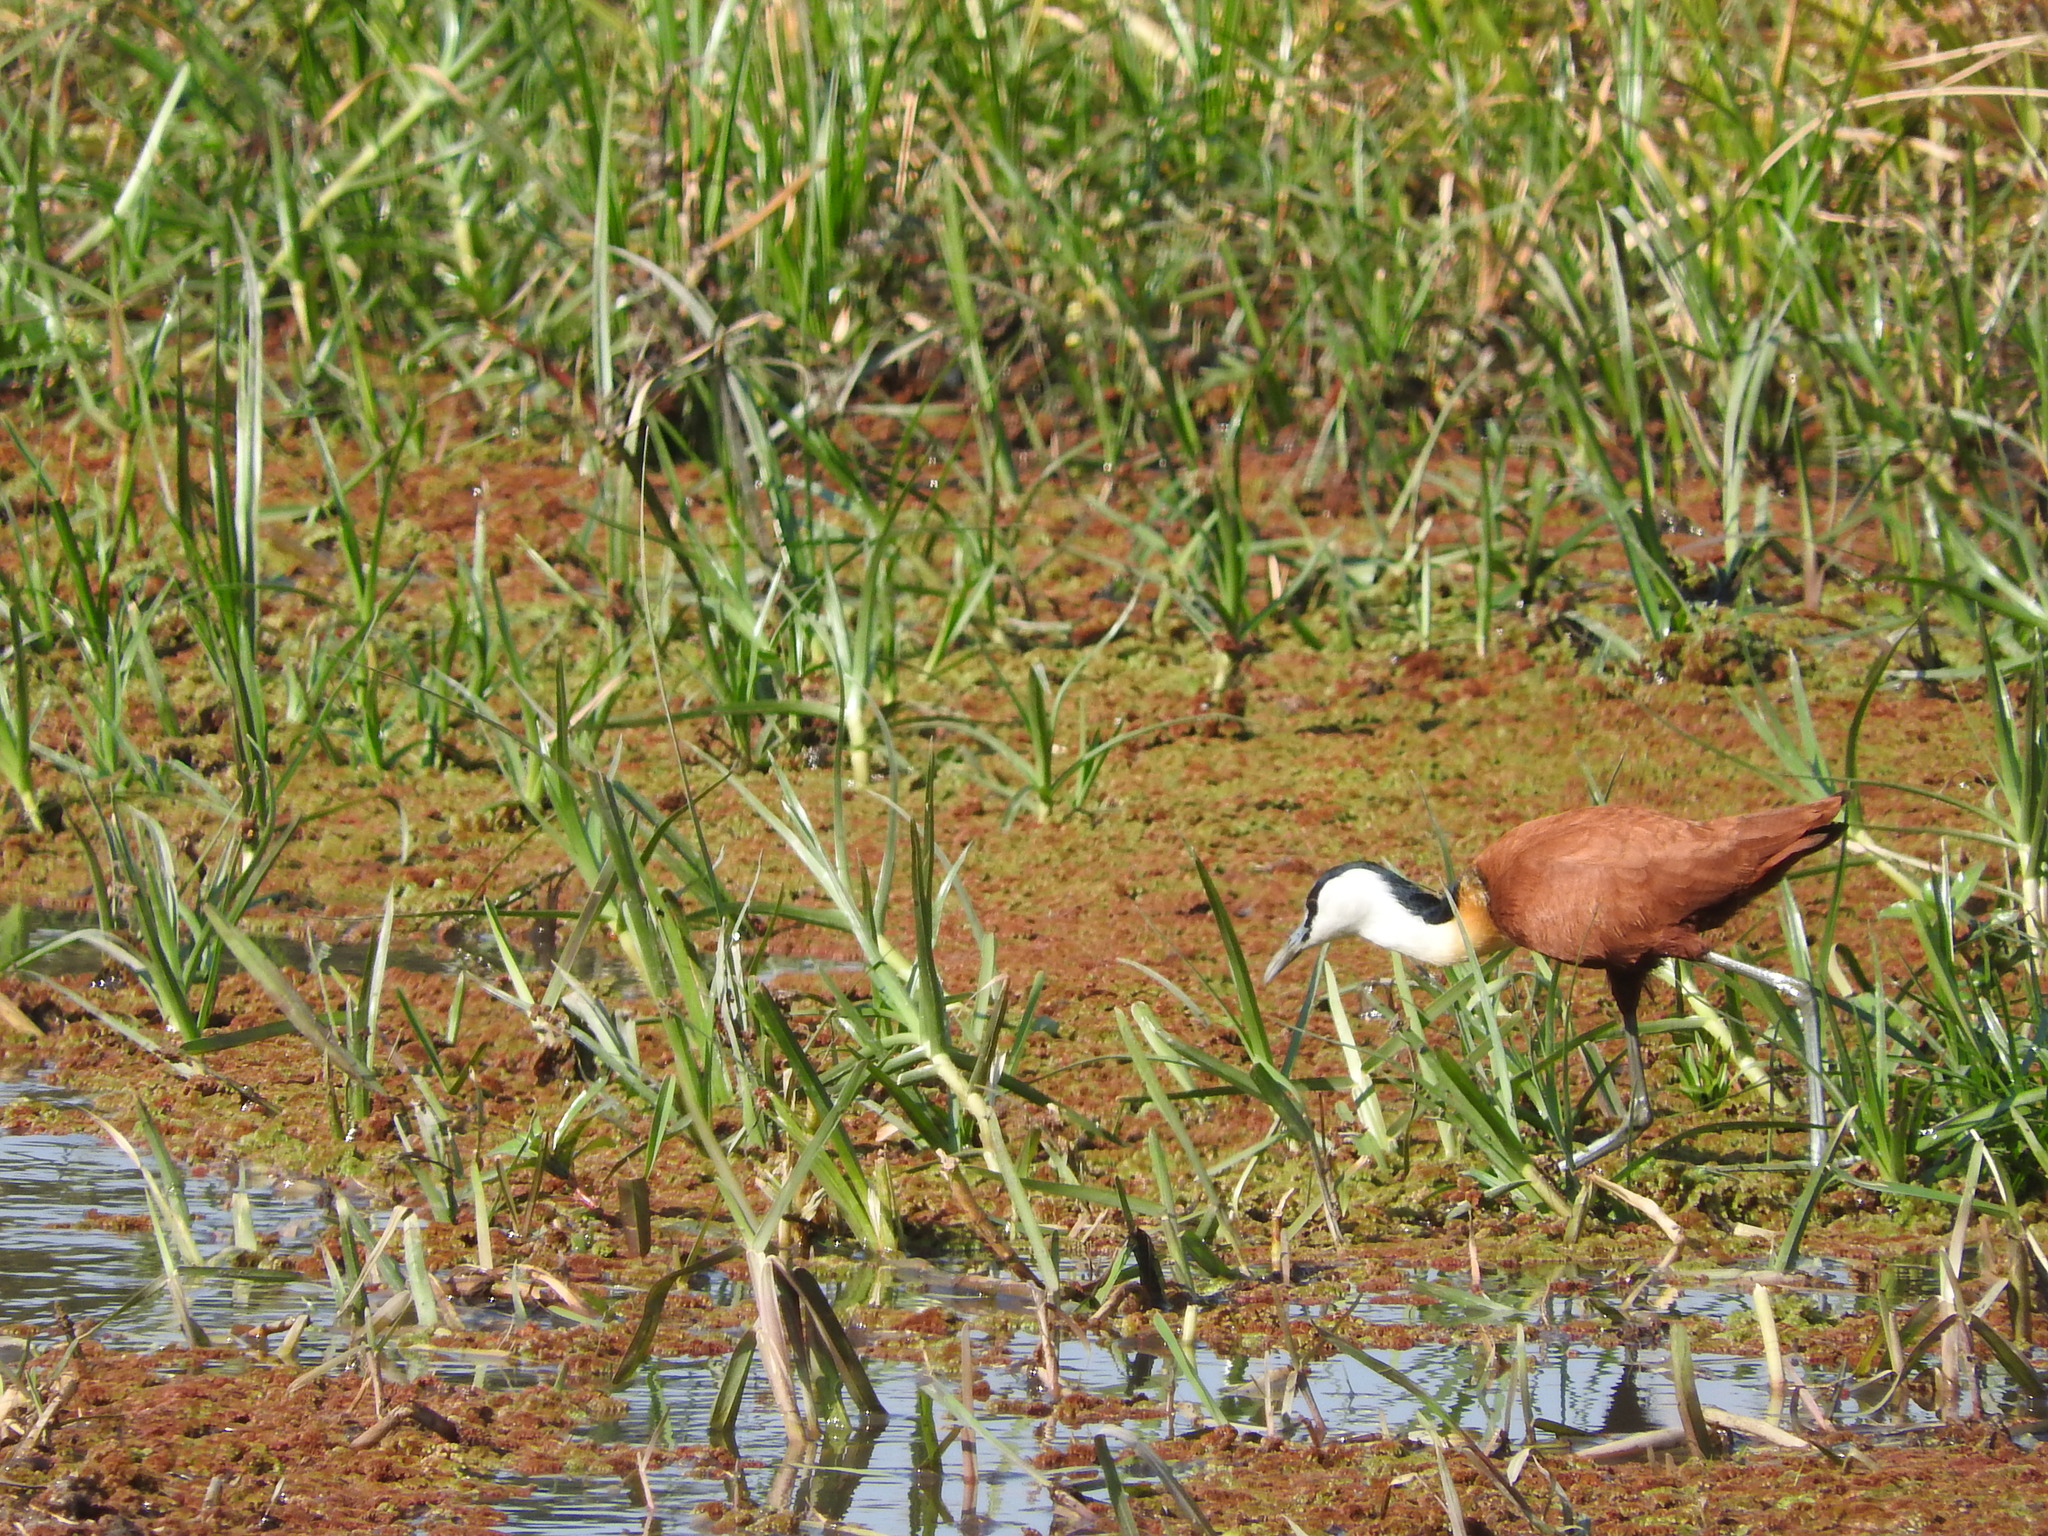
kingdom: Animalia
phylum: Chordata
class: Aves
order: Charadriiformes
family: Jacanidae
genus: Actophilornis
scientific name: Actophilornis africanus
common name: African jacana
